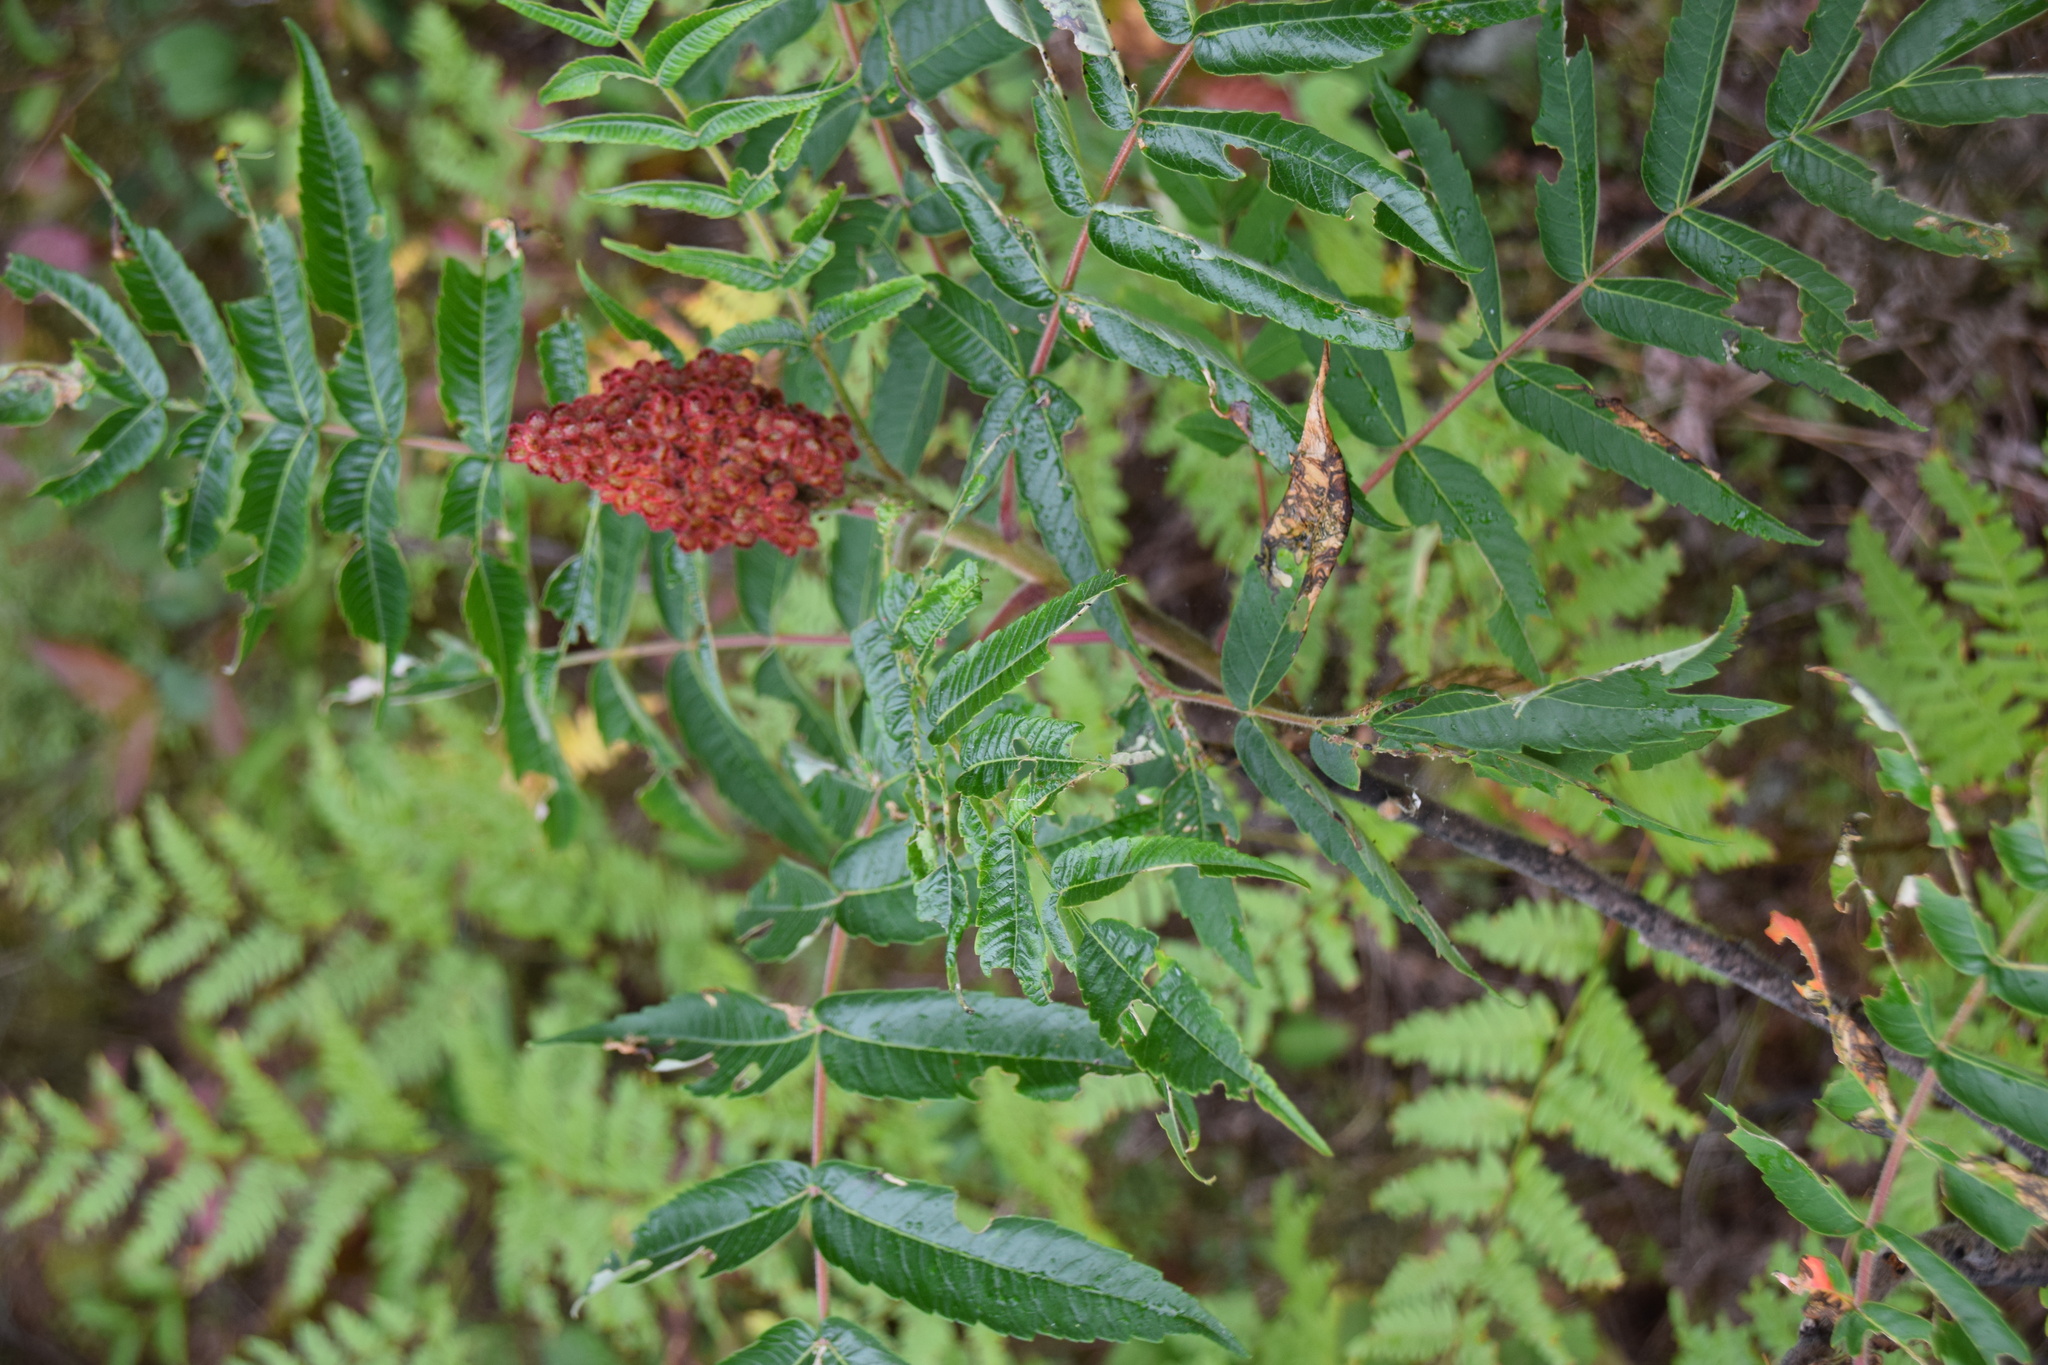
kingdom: Plantae
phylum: Tracheophyta
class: Magnoliopsida
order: Sapindales
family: Anacardiaceae
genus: Rhus
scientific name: Rhus typhina
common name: Staghorn sumac
